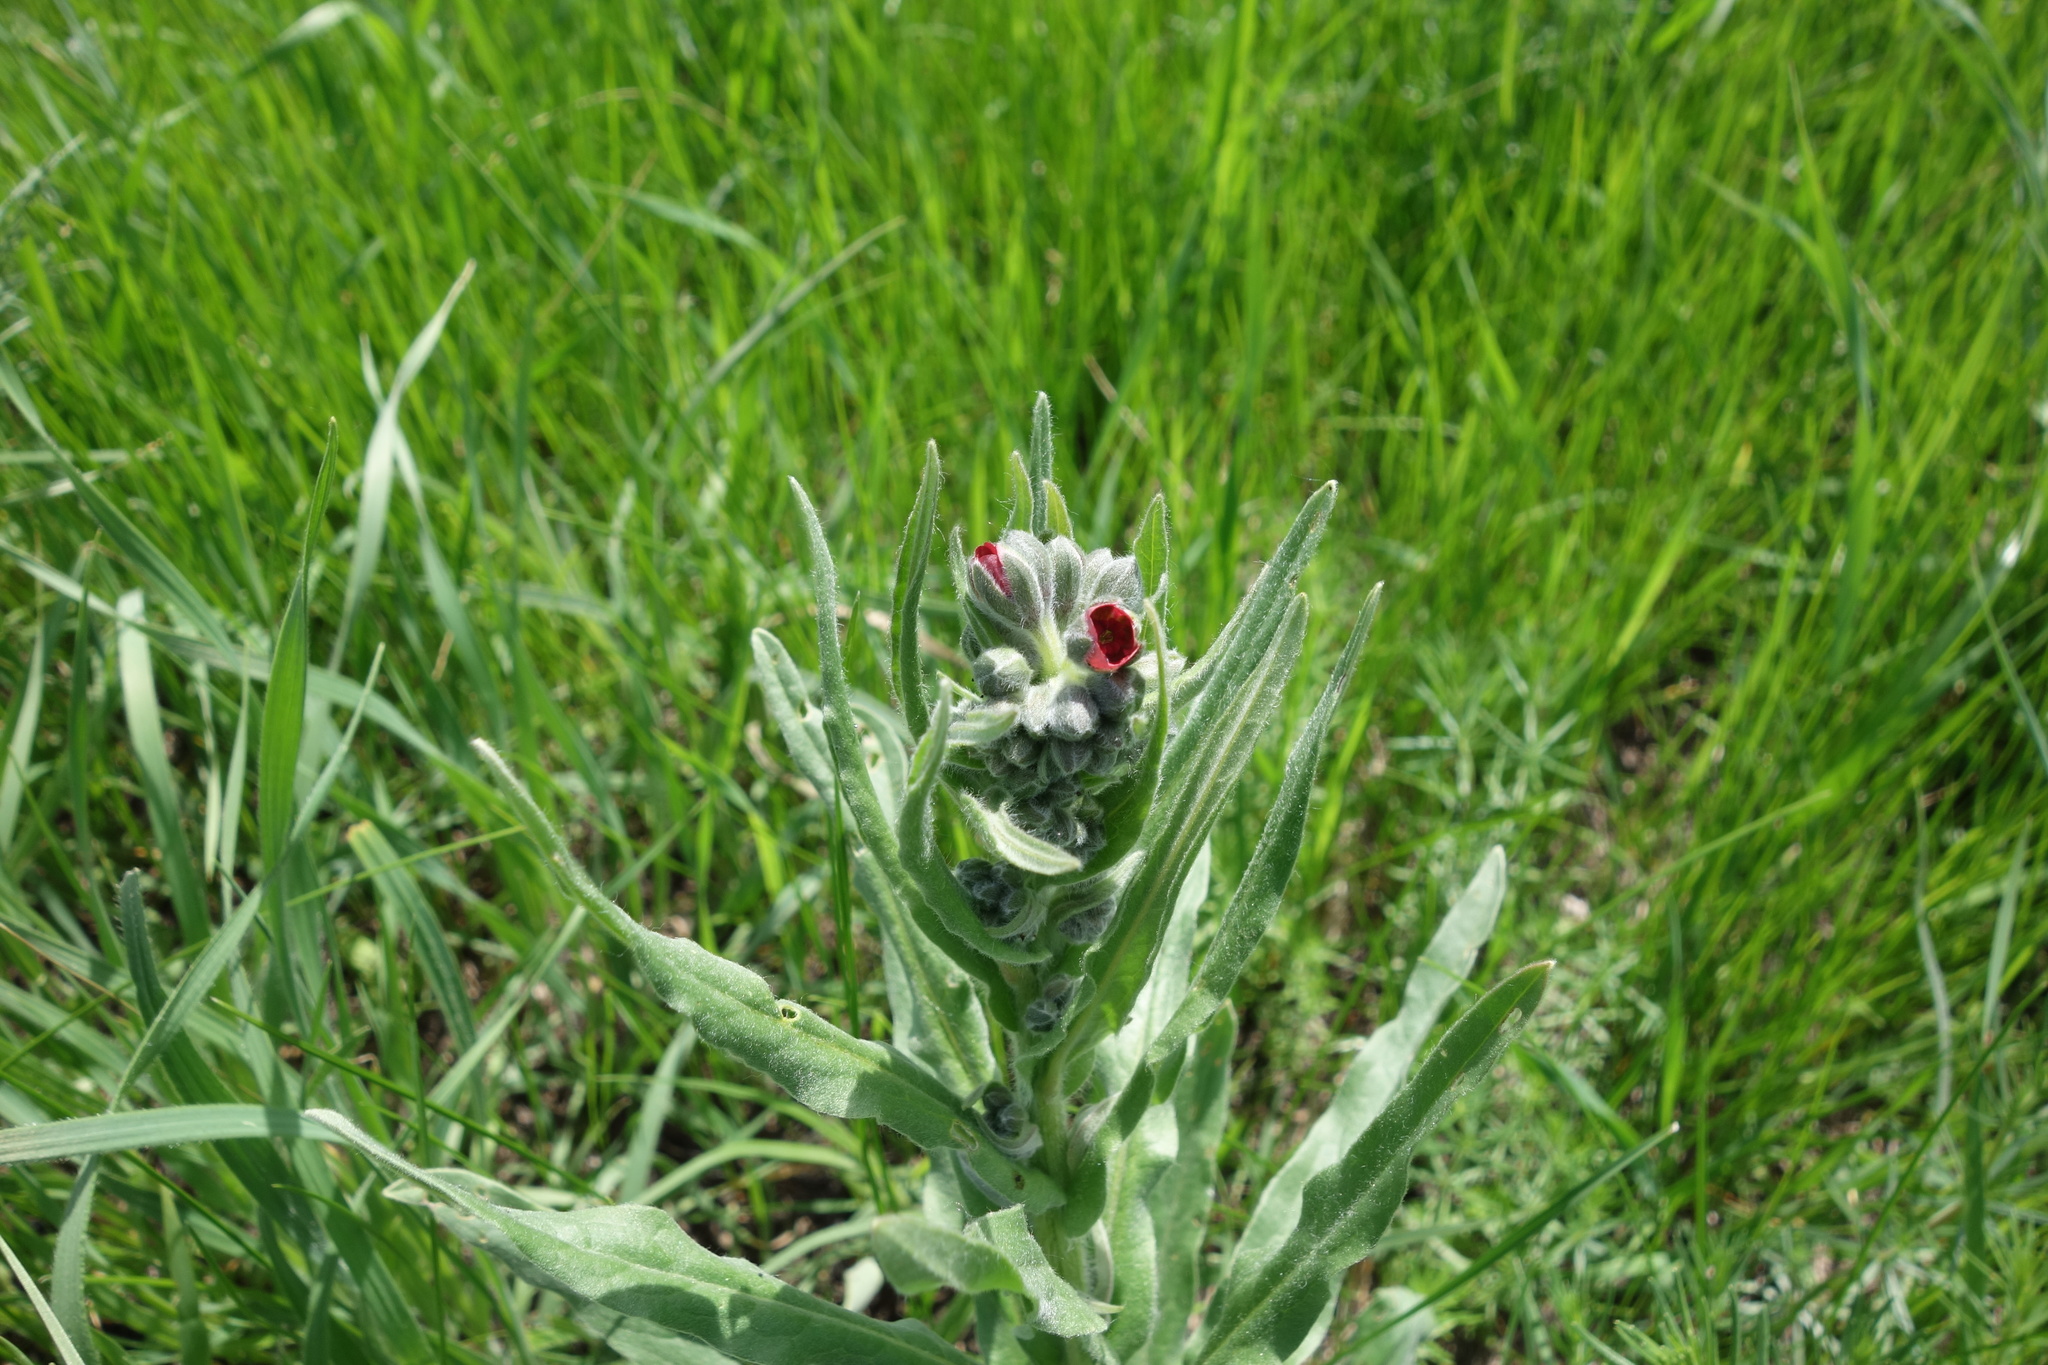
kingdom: Plantae
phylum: Tracheophyta
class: Magnoliopsida
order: Boraginales
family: Boraginaceae
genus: Cynoglossum
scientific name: Cynoglossum officinale
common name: Hound's-tongue
